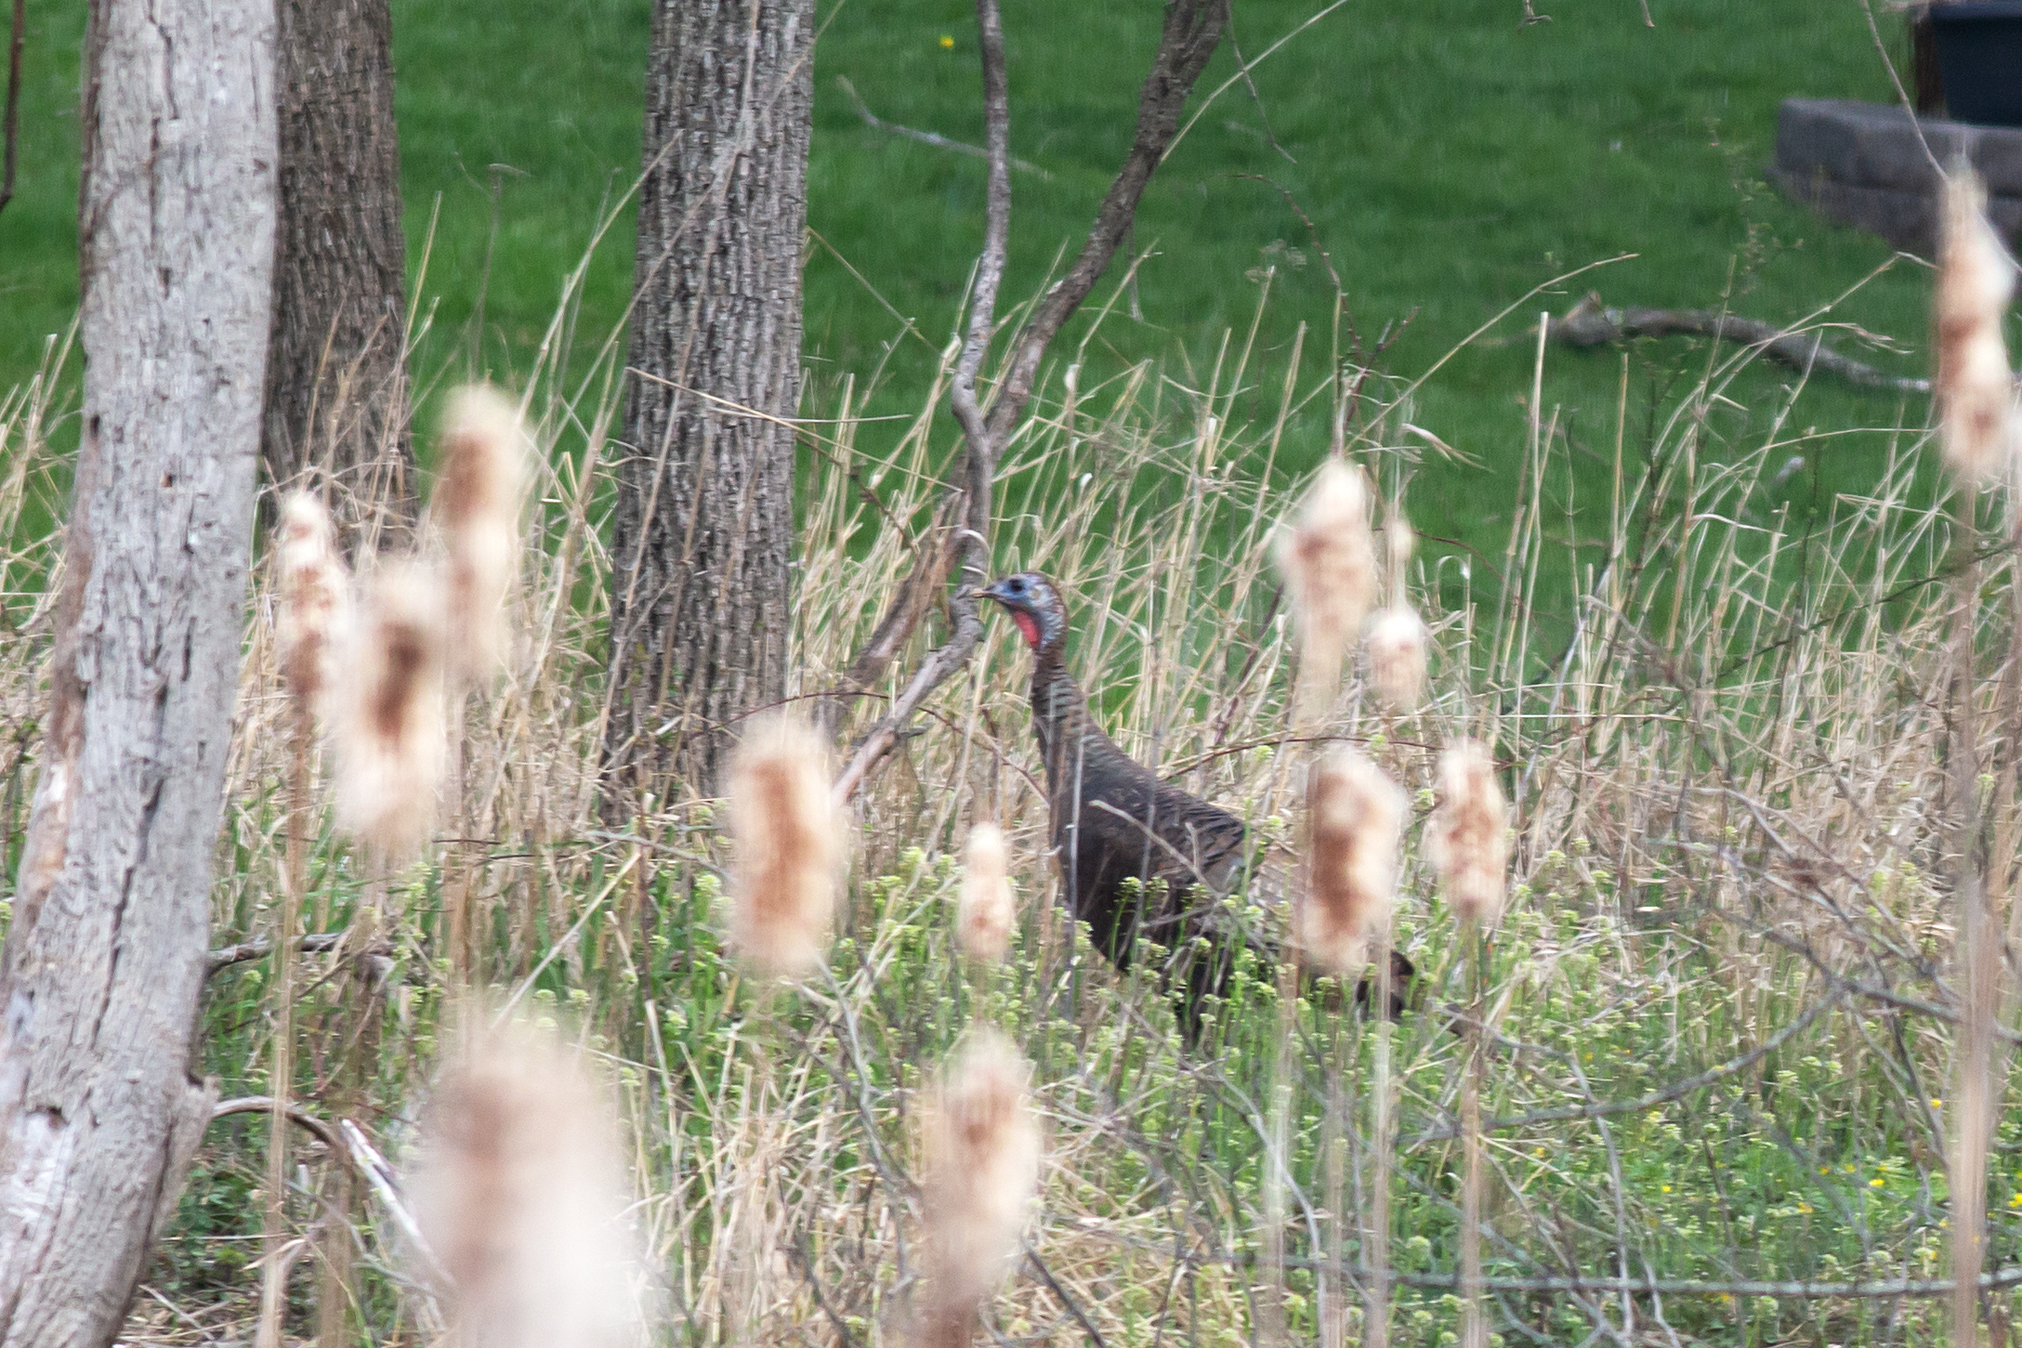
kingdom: Animalia
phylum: Chordata
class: Aves
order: Galliformes
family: Phasianidae
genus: Meleagris
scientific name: Meleagris gallopavo
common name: Wild turkey
